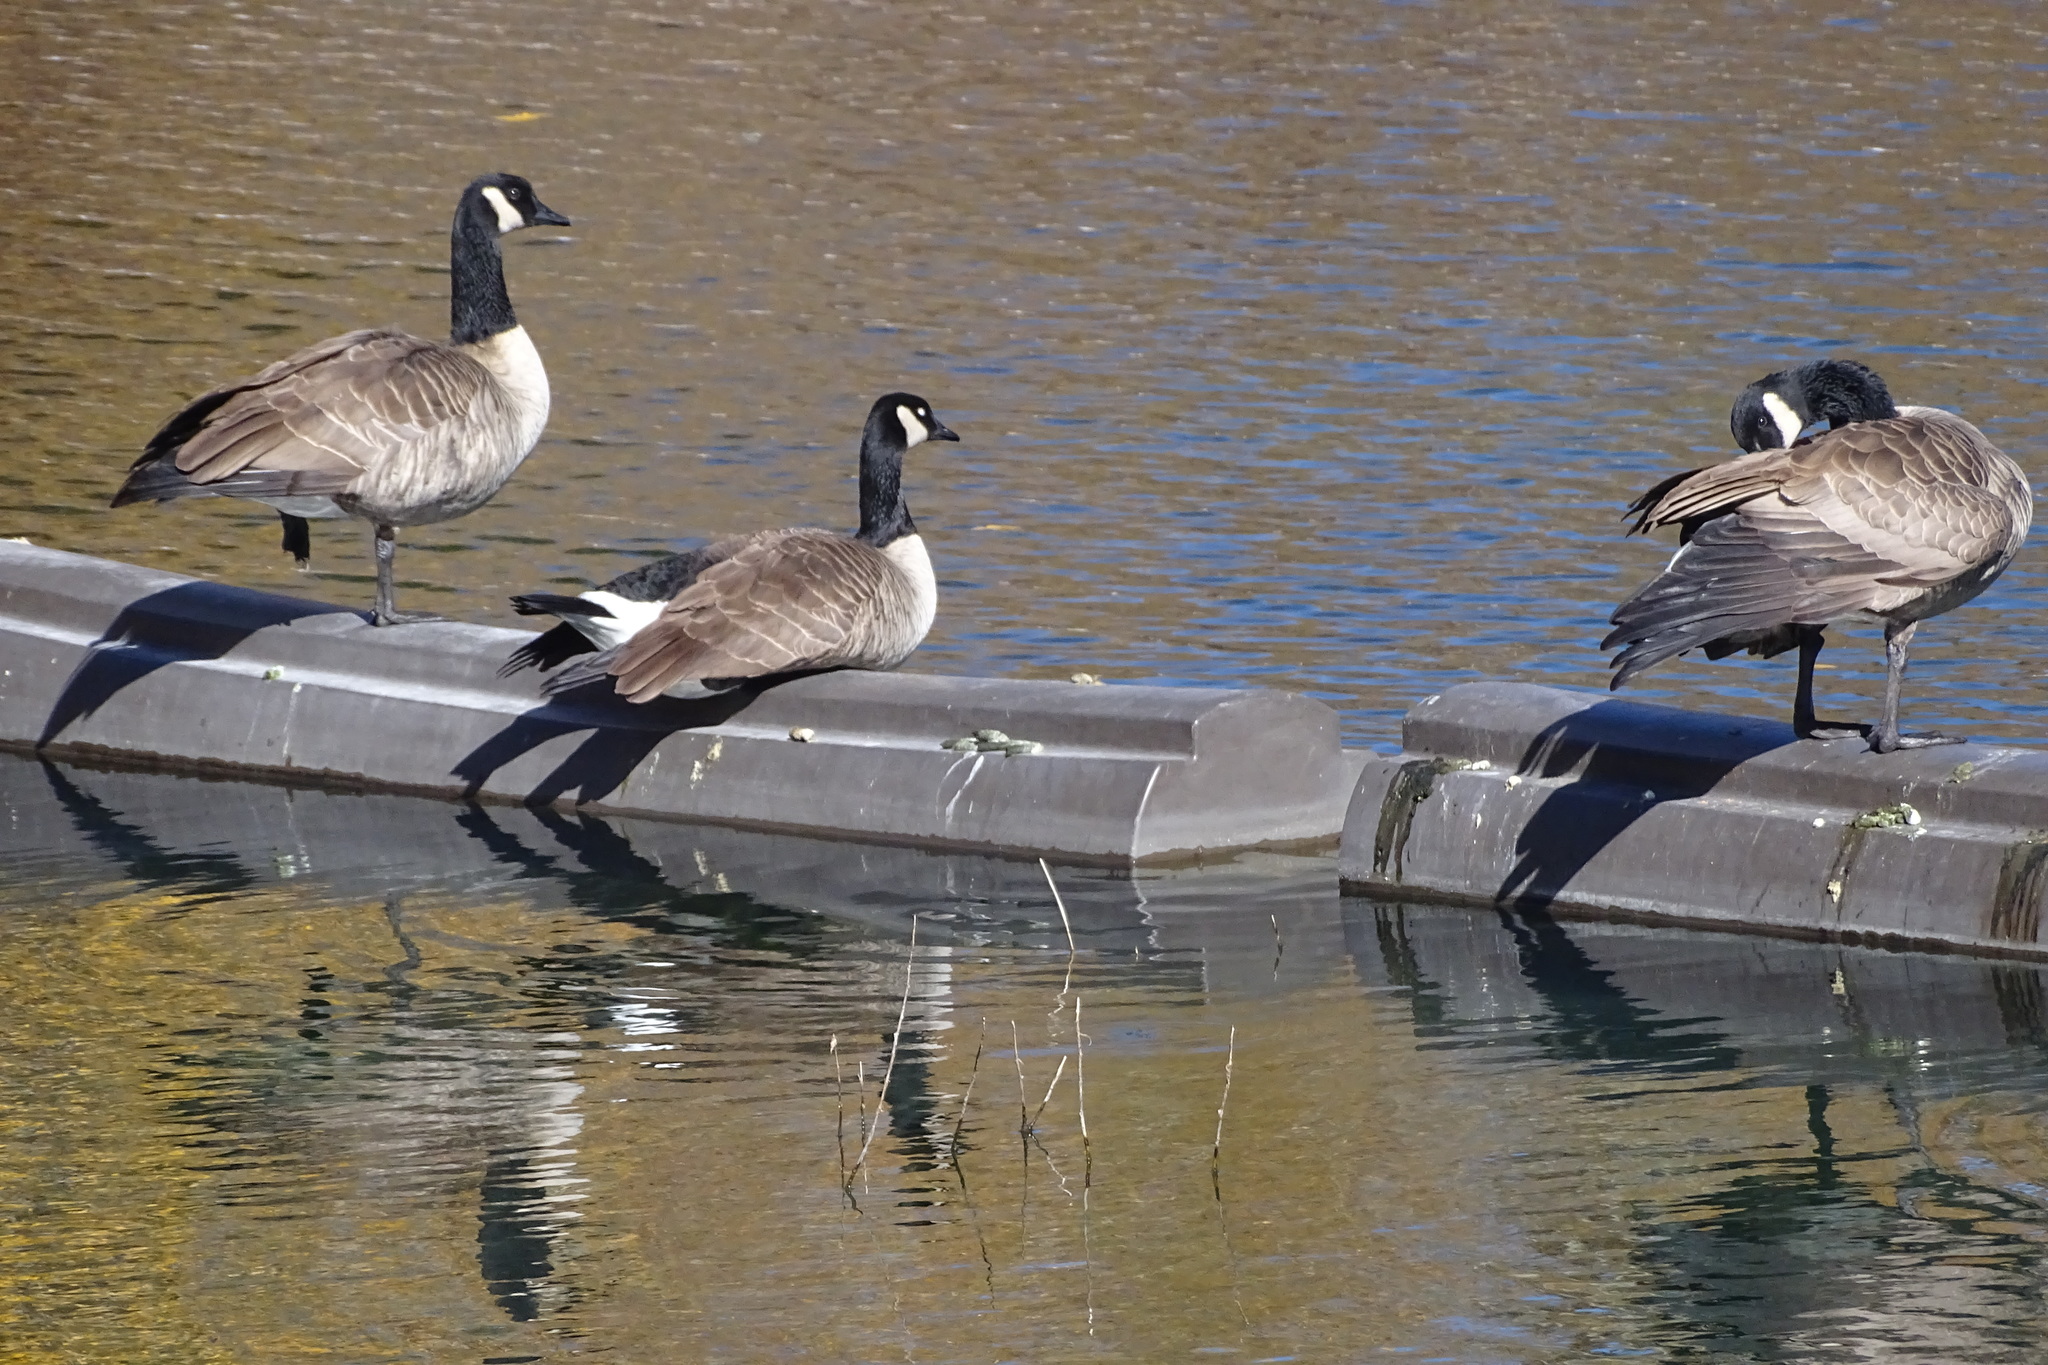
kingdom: Animalia
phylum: Chordata
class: Aves
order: Anseriformes
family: Anatidae
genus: Branta
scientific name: Branta canadensis
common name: Canada goose
